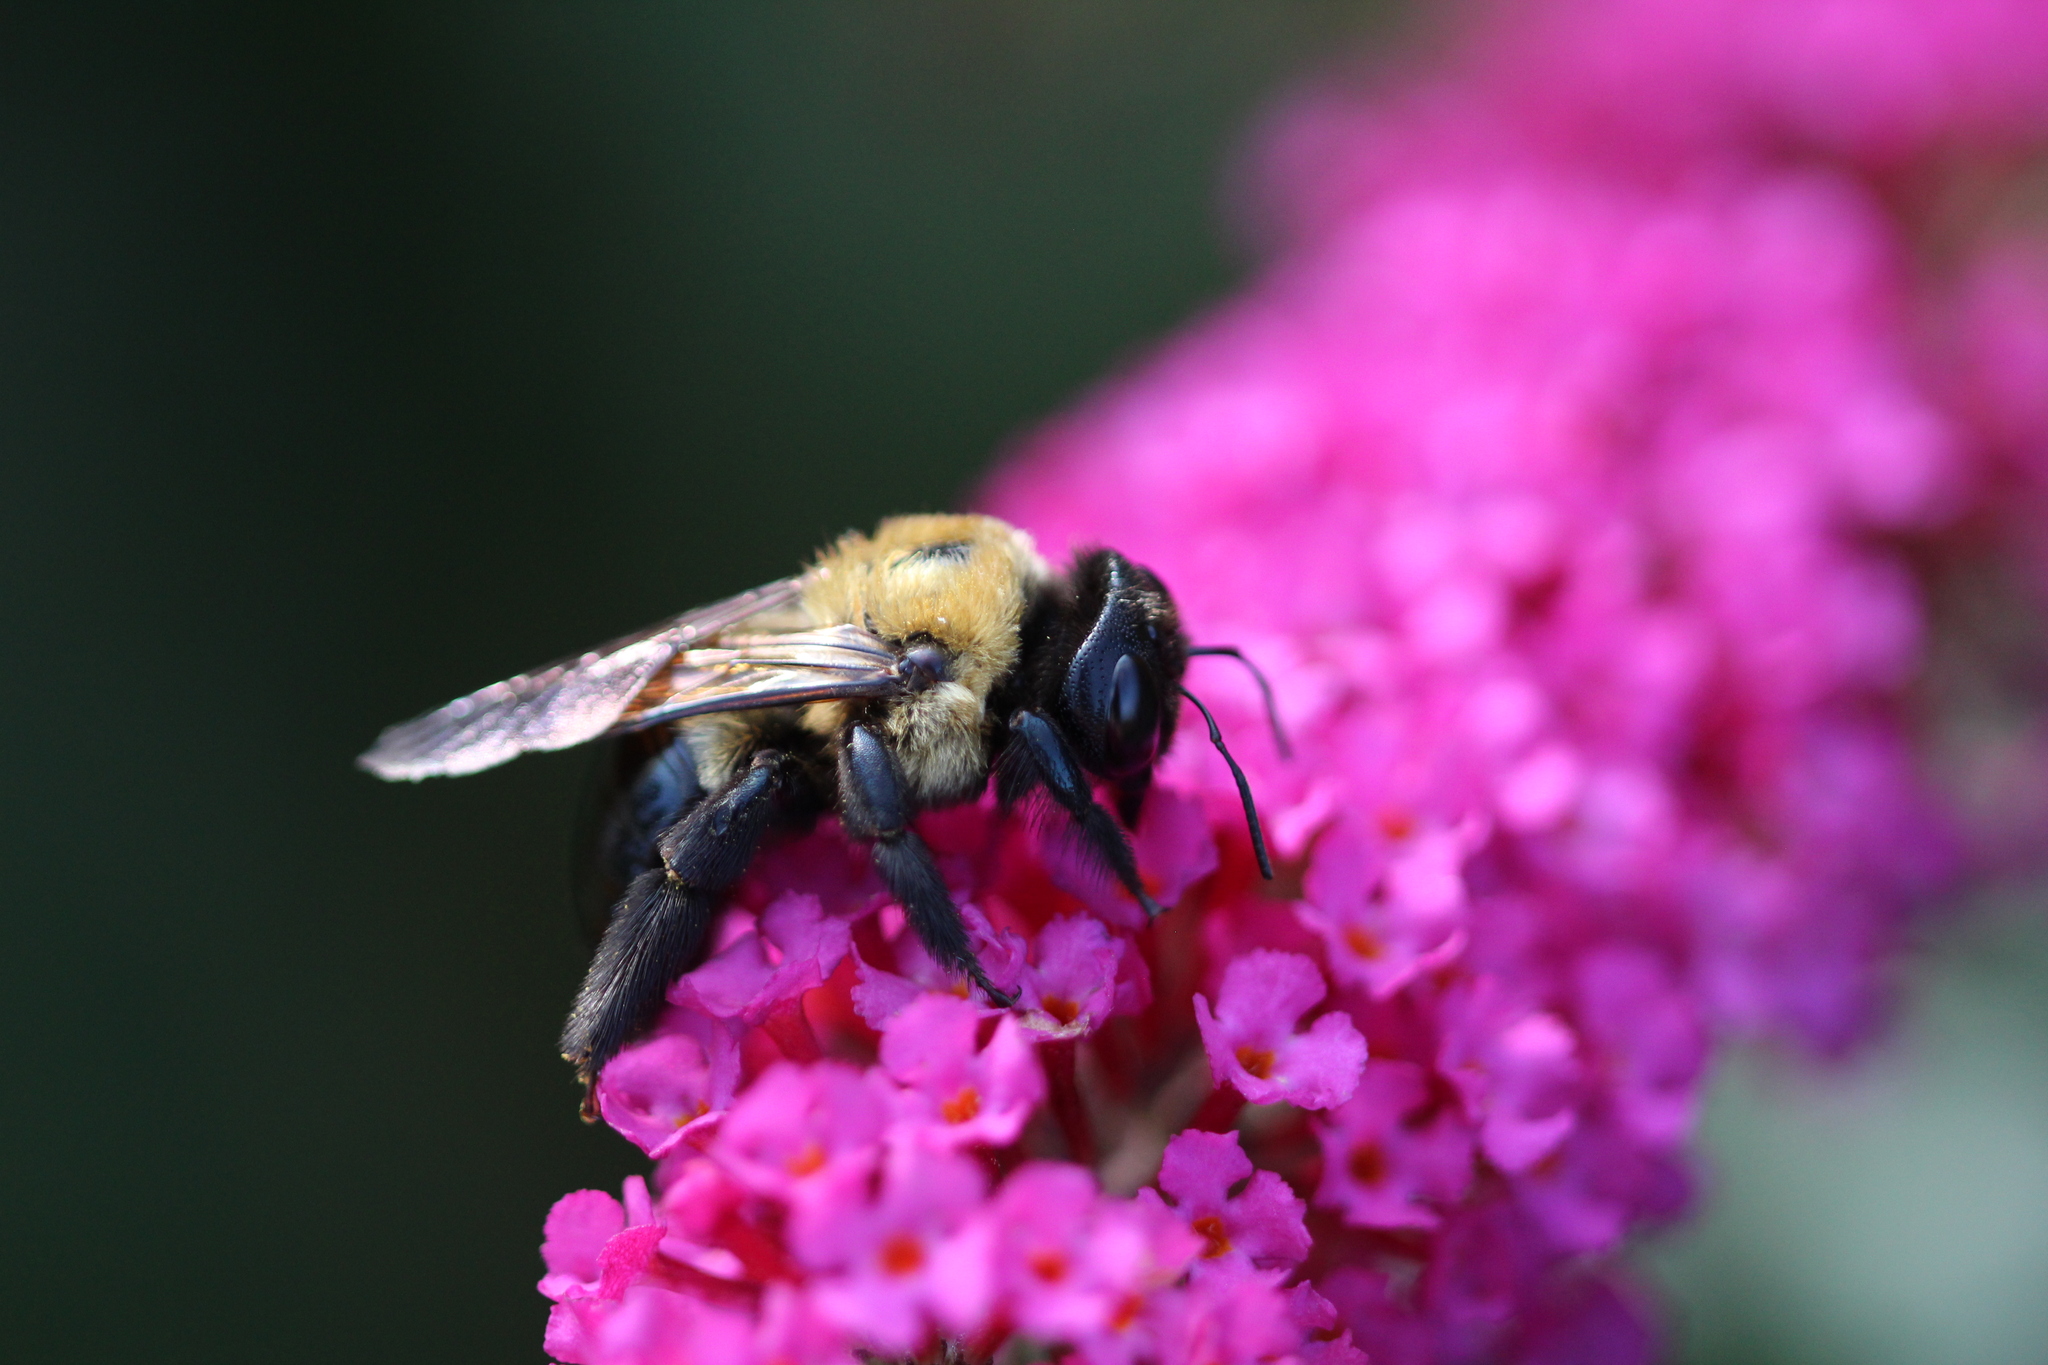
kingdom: Animalia
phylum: Arthropoda
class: Insecta
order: Hymenoptera
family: Apidae
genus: Xylocopa
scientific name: Xylocopa virginica
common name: Carpenter bee
